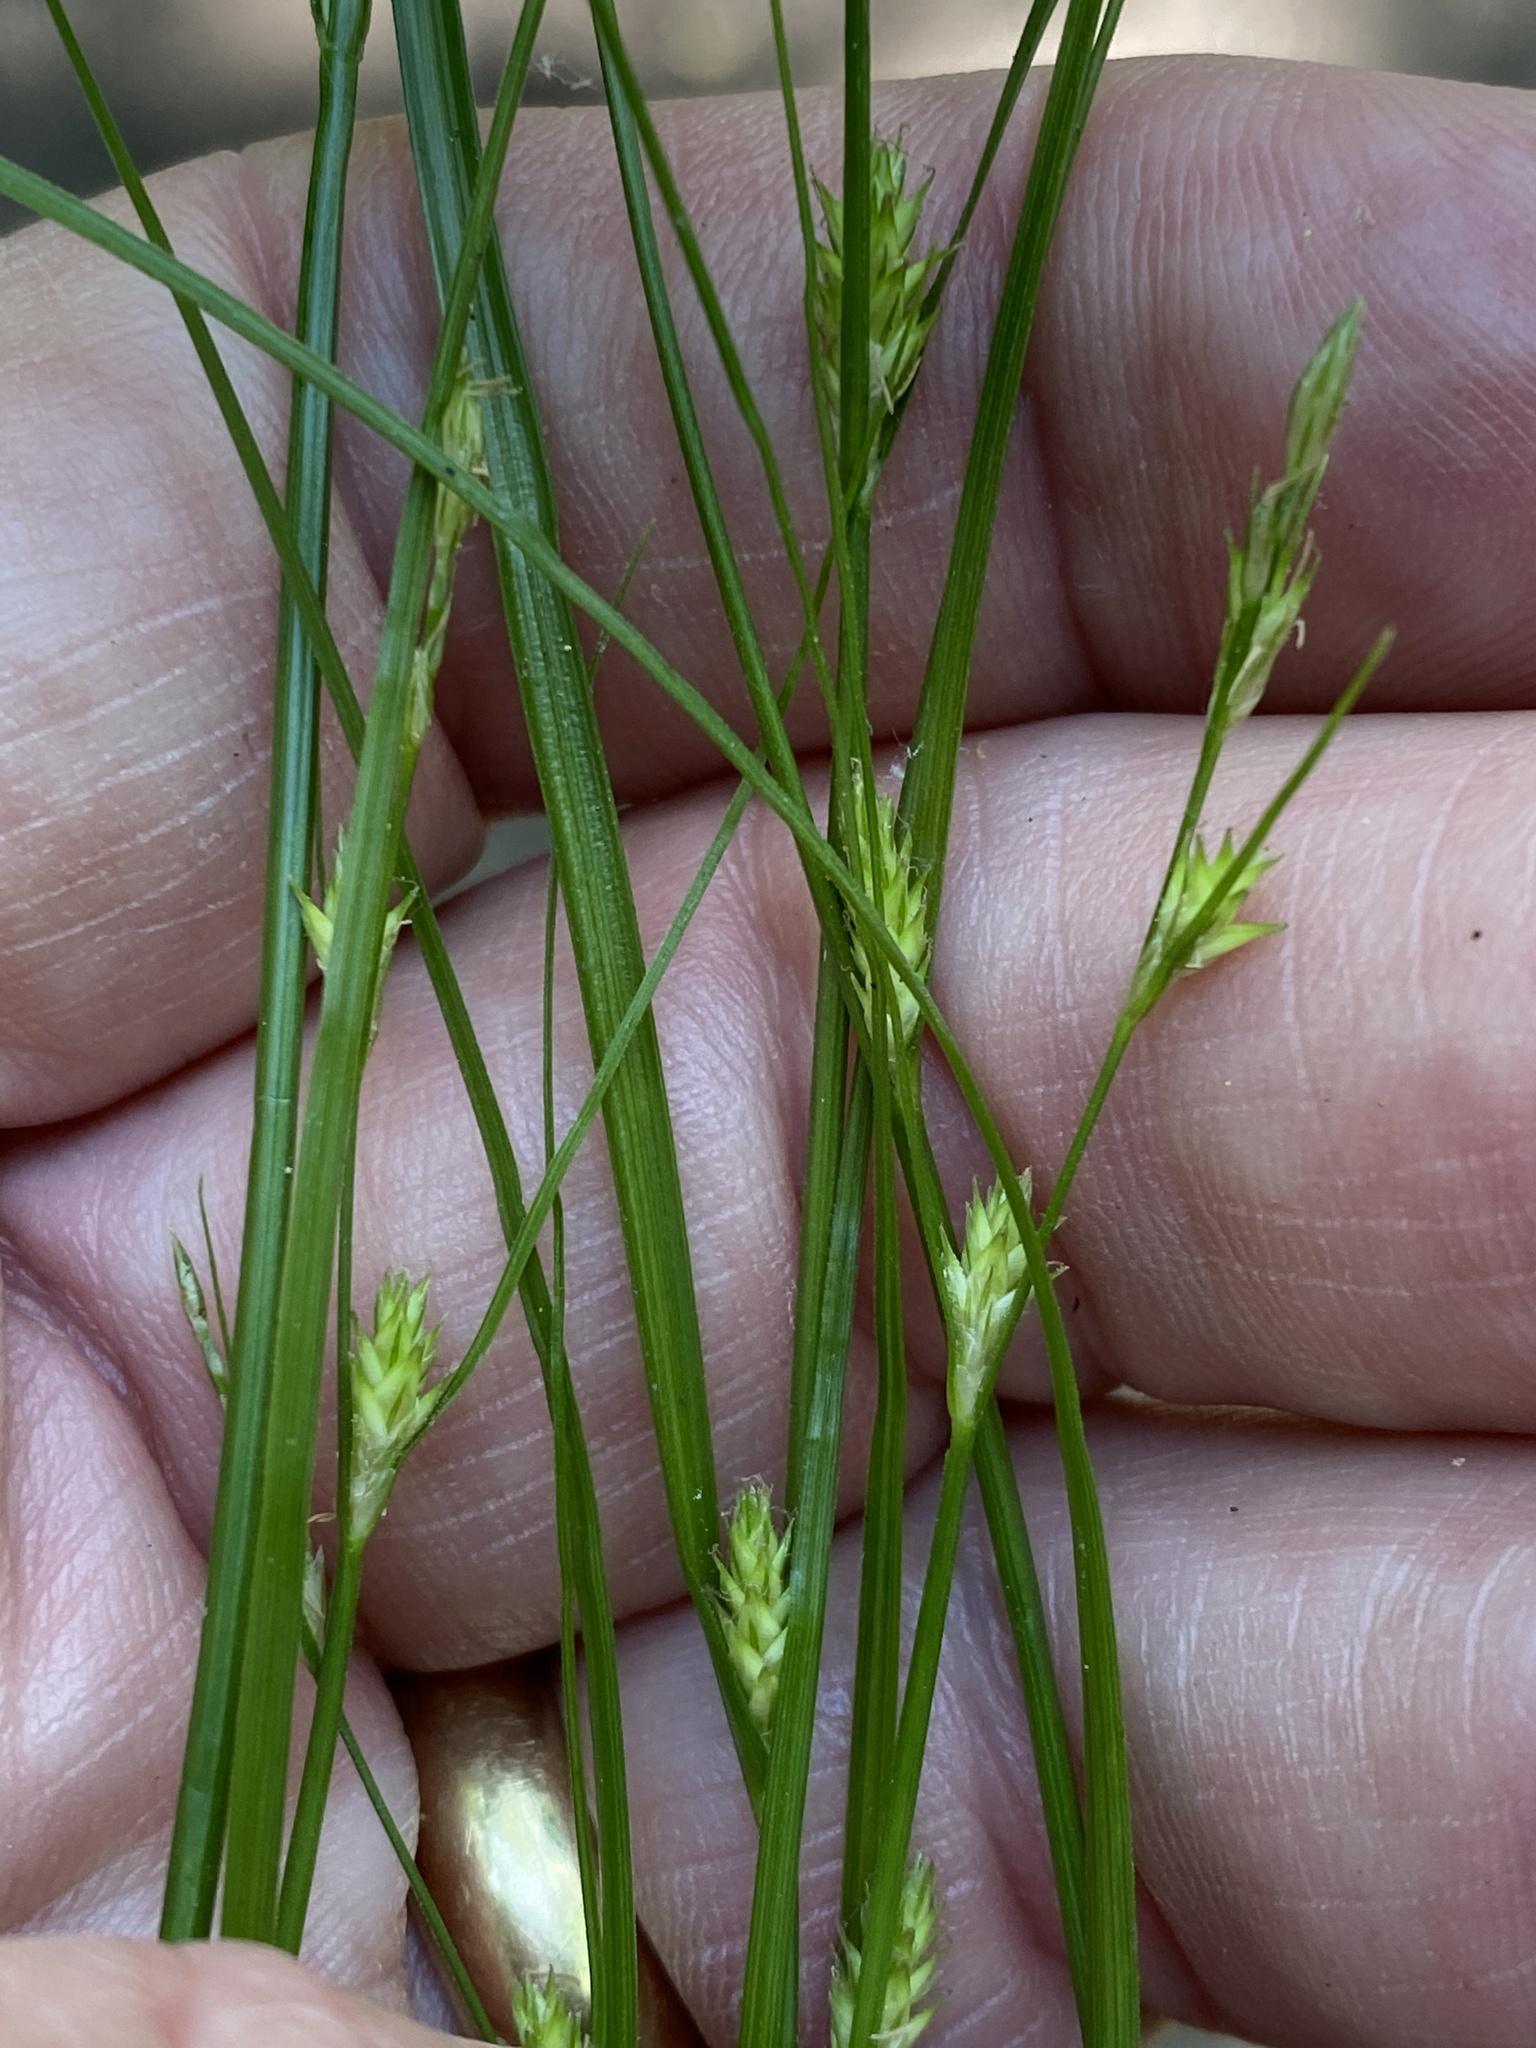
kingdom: Plantae
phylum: Tracheophyta
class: Liliopsida
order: Poales
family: Cyperaceae
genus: Carex
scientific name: Carex remota
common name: Remote sedge
